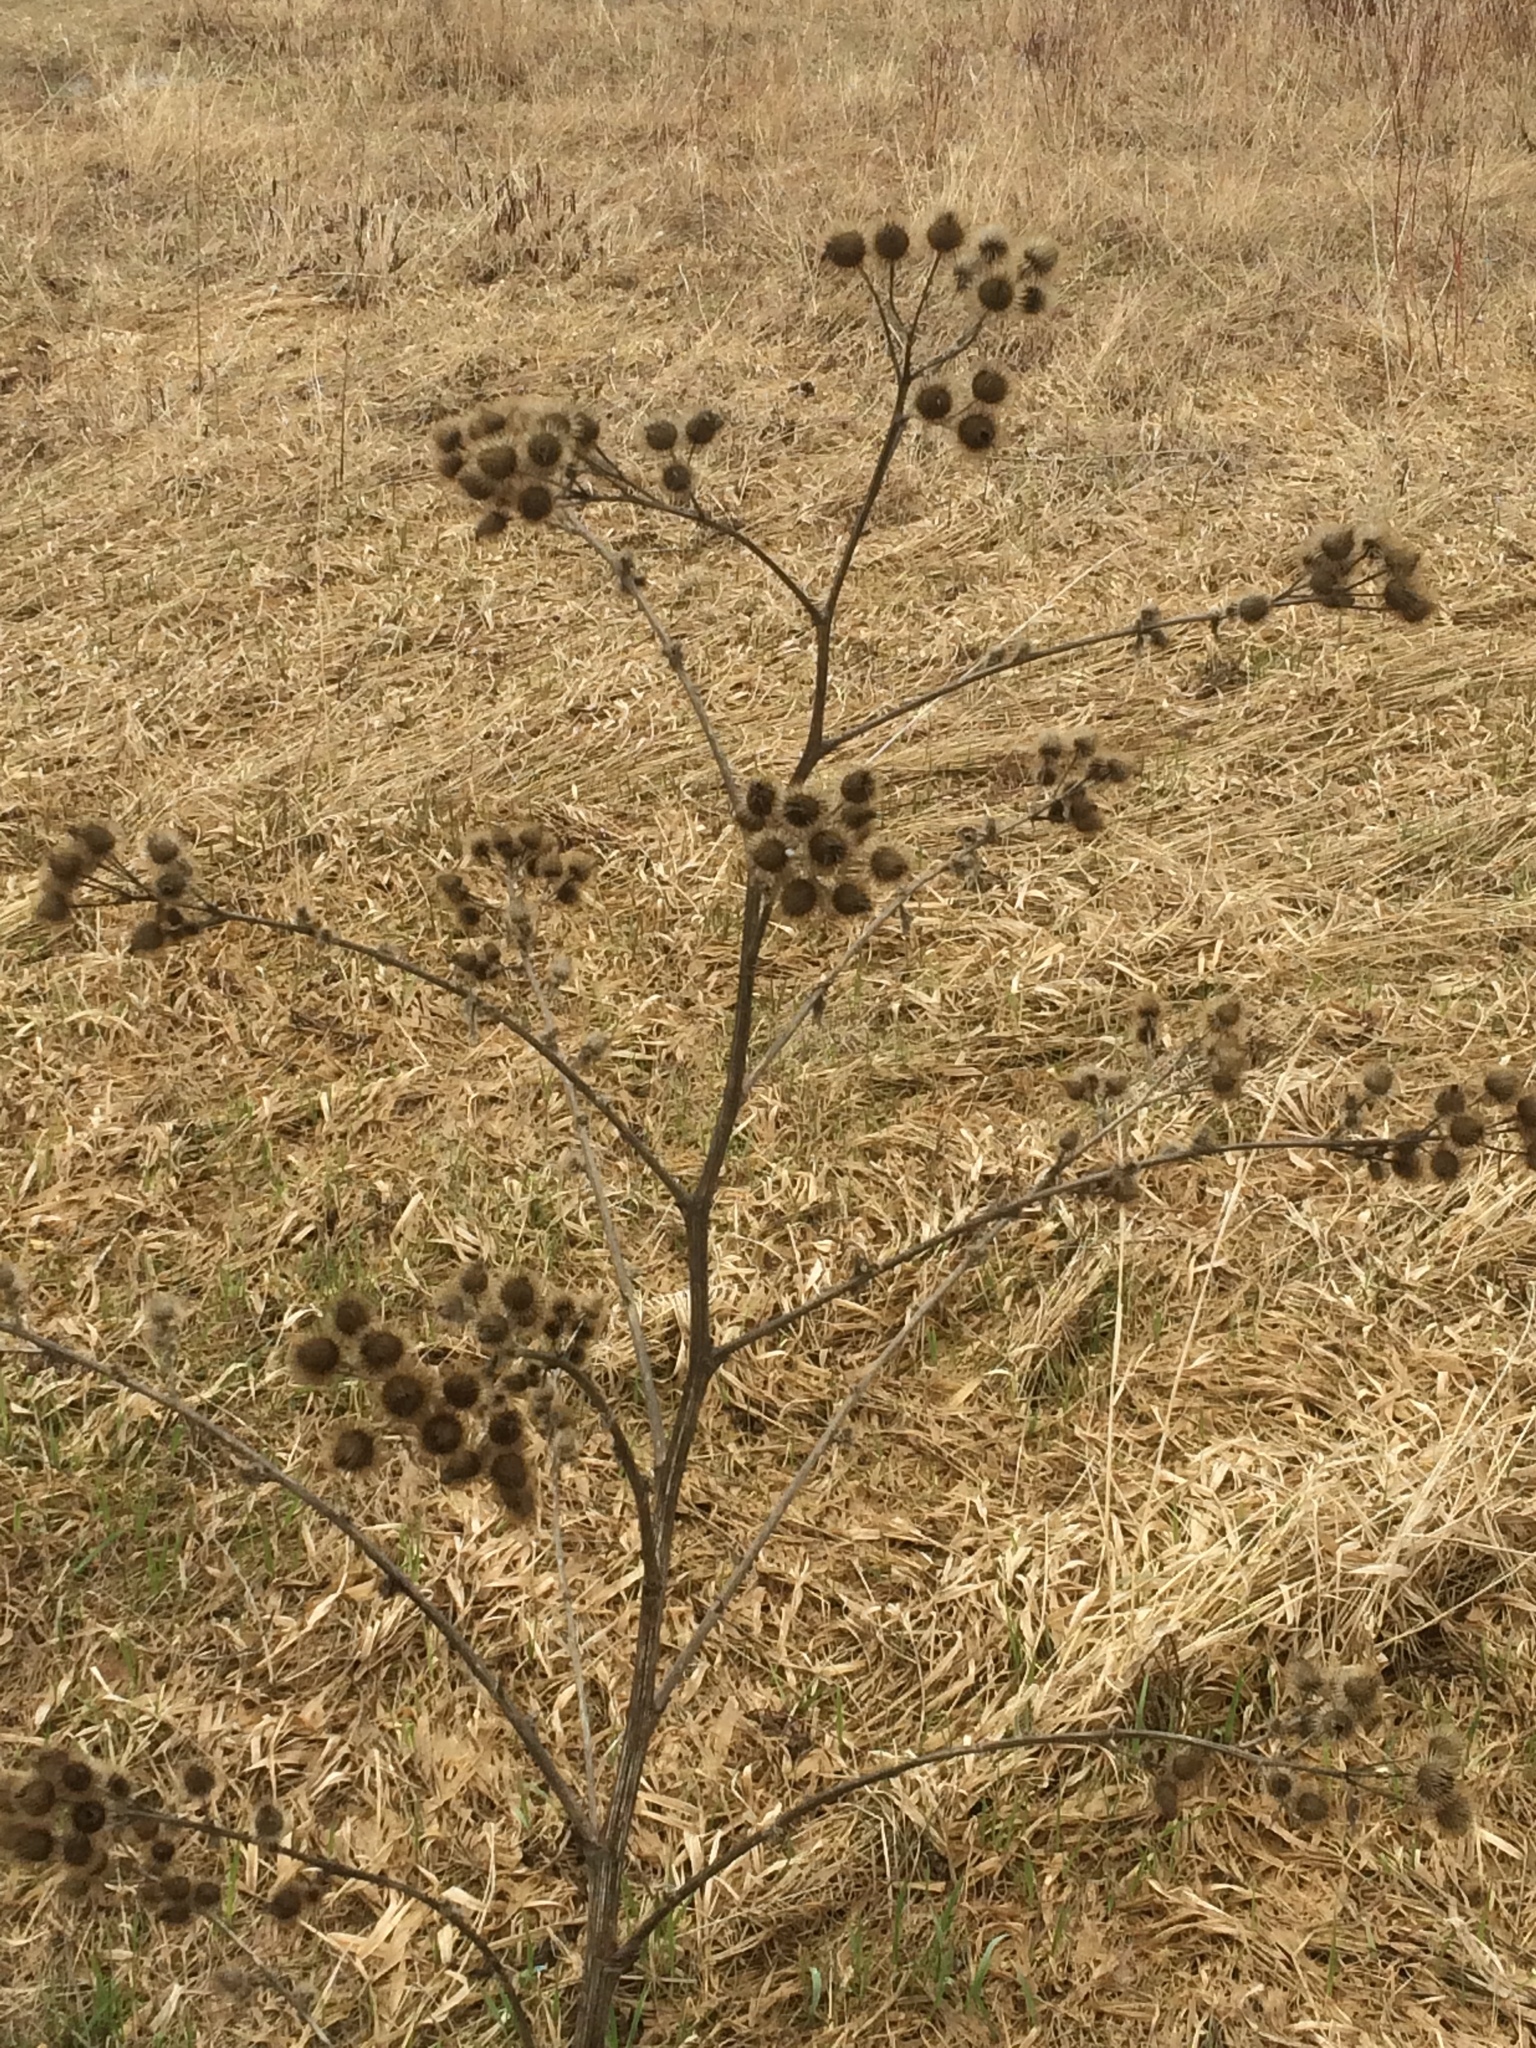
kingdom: Plantae
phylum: Tracheophyta
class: Magnoliopsida
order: Asterales
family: Asteraceae
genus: Arctium
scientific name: Arctium lappa
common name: Greater burdock
